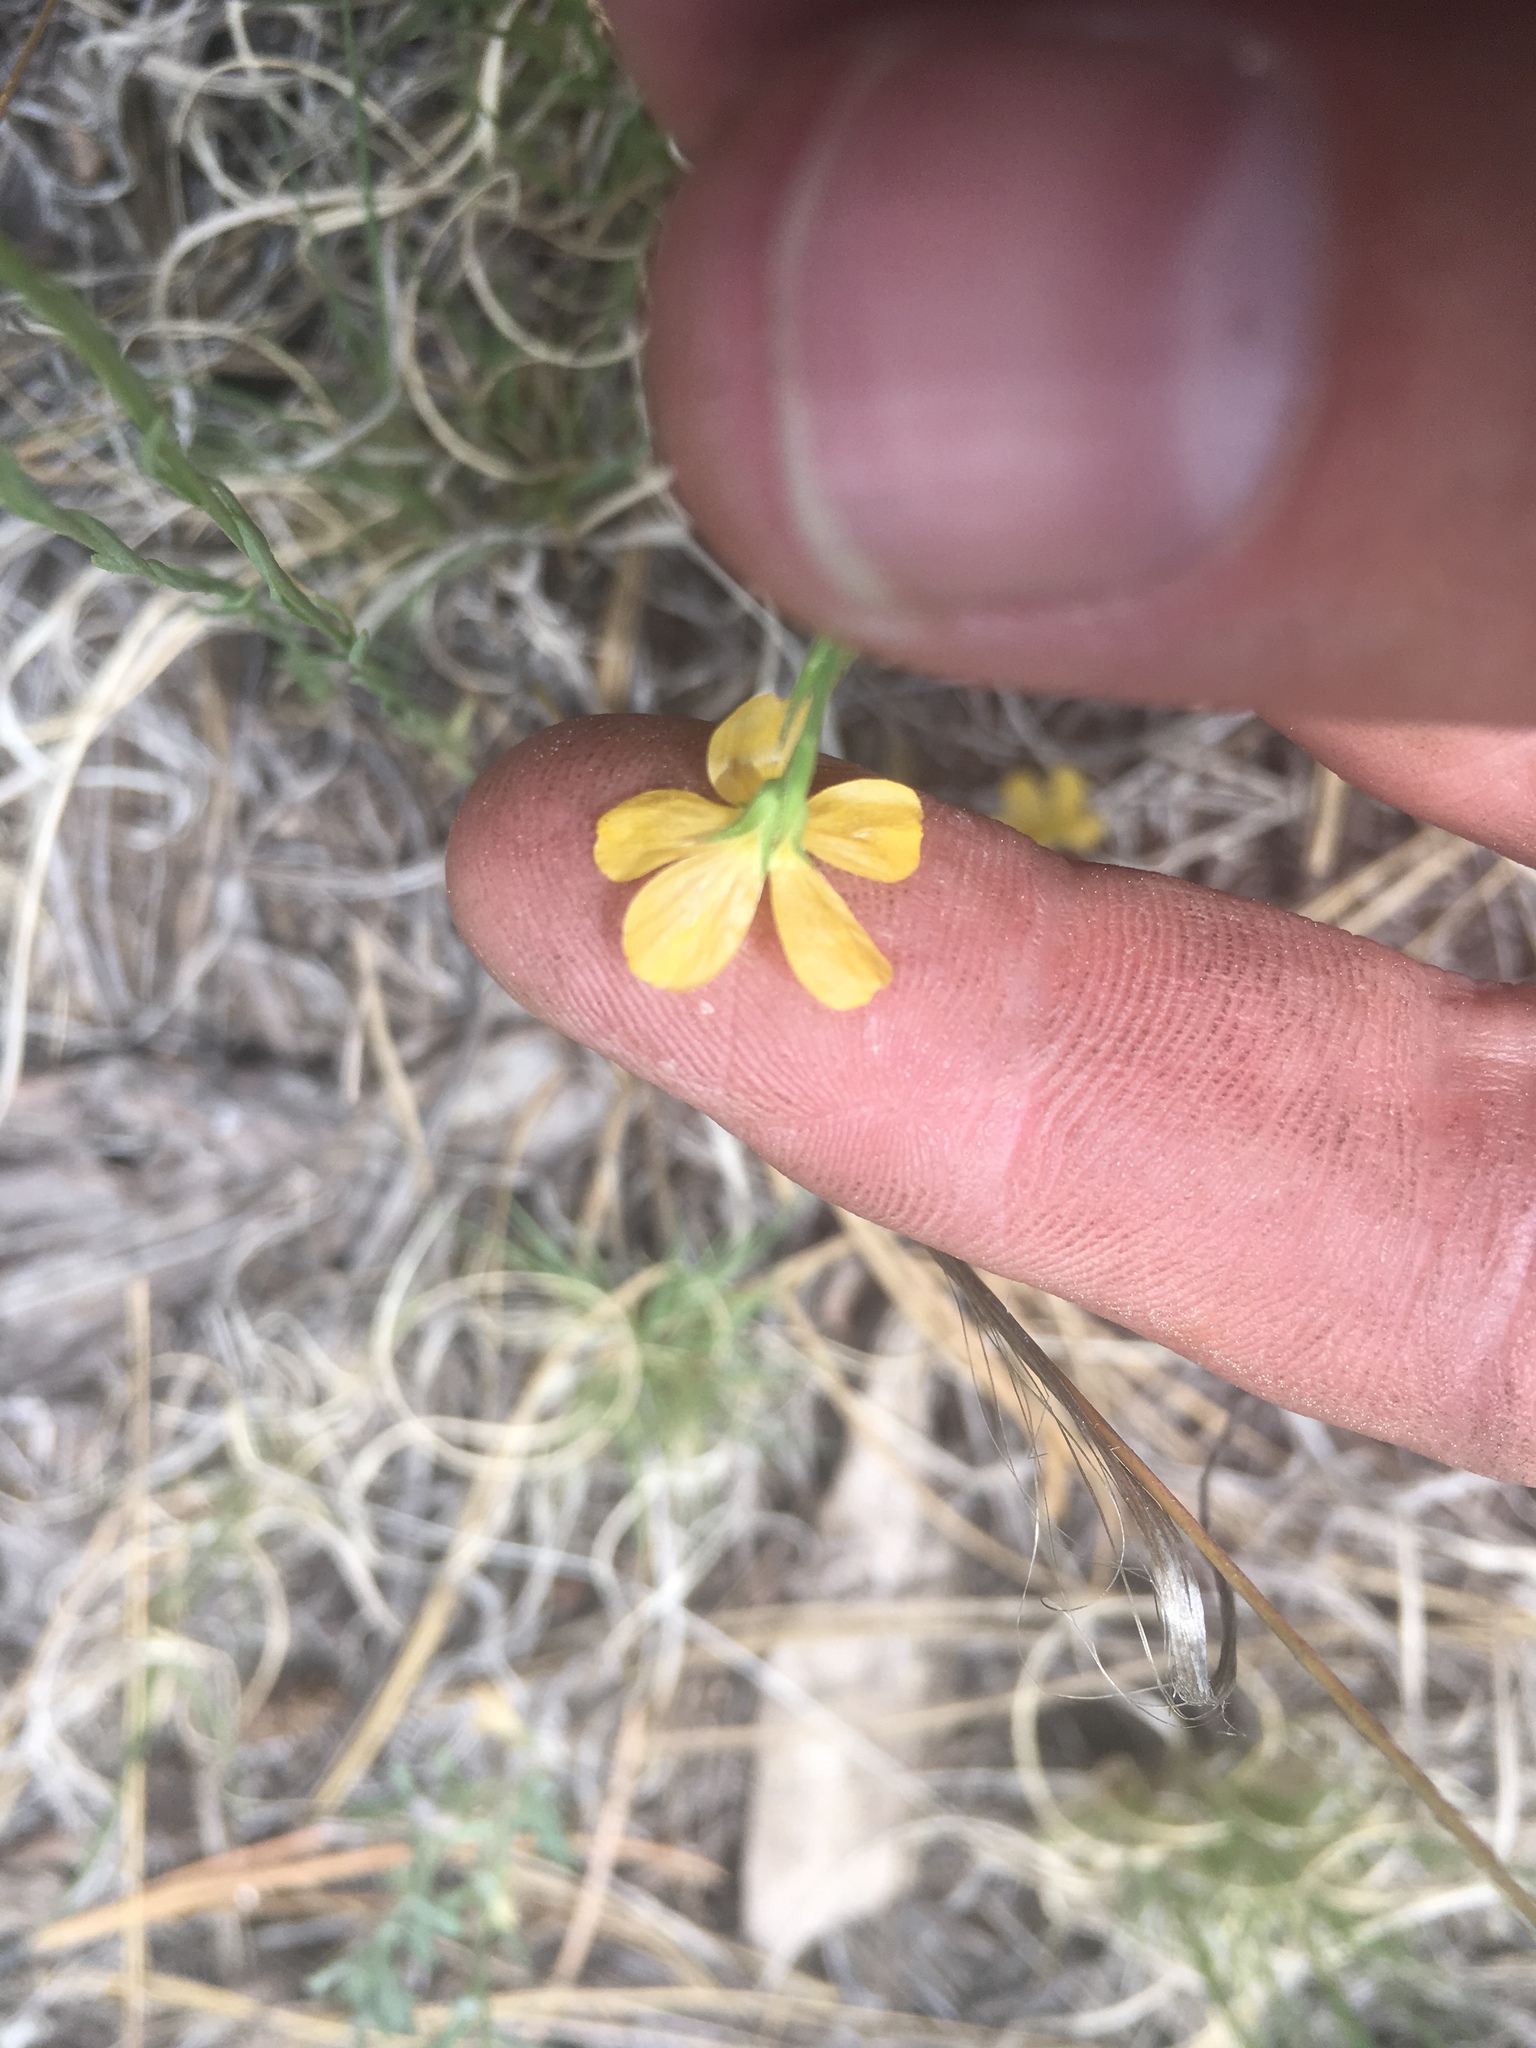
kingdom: Plantae
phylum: Tracheophyta
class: Magnoliopsida
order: Malpighiales
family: Linaceae
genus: Linum
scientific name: Linum australe
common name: Small yellow flax
